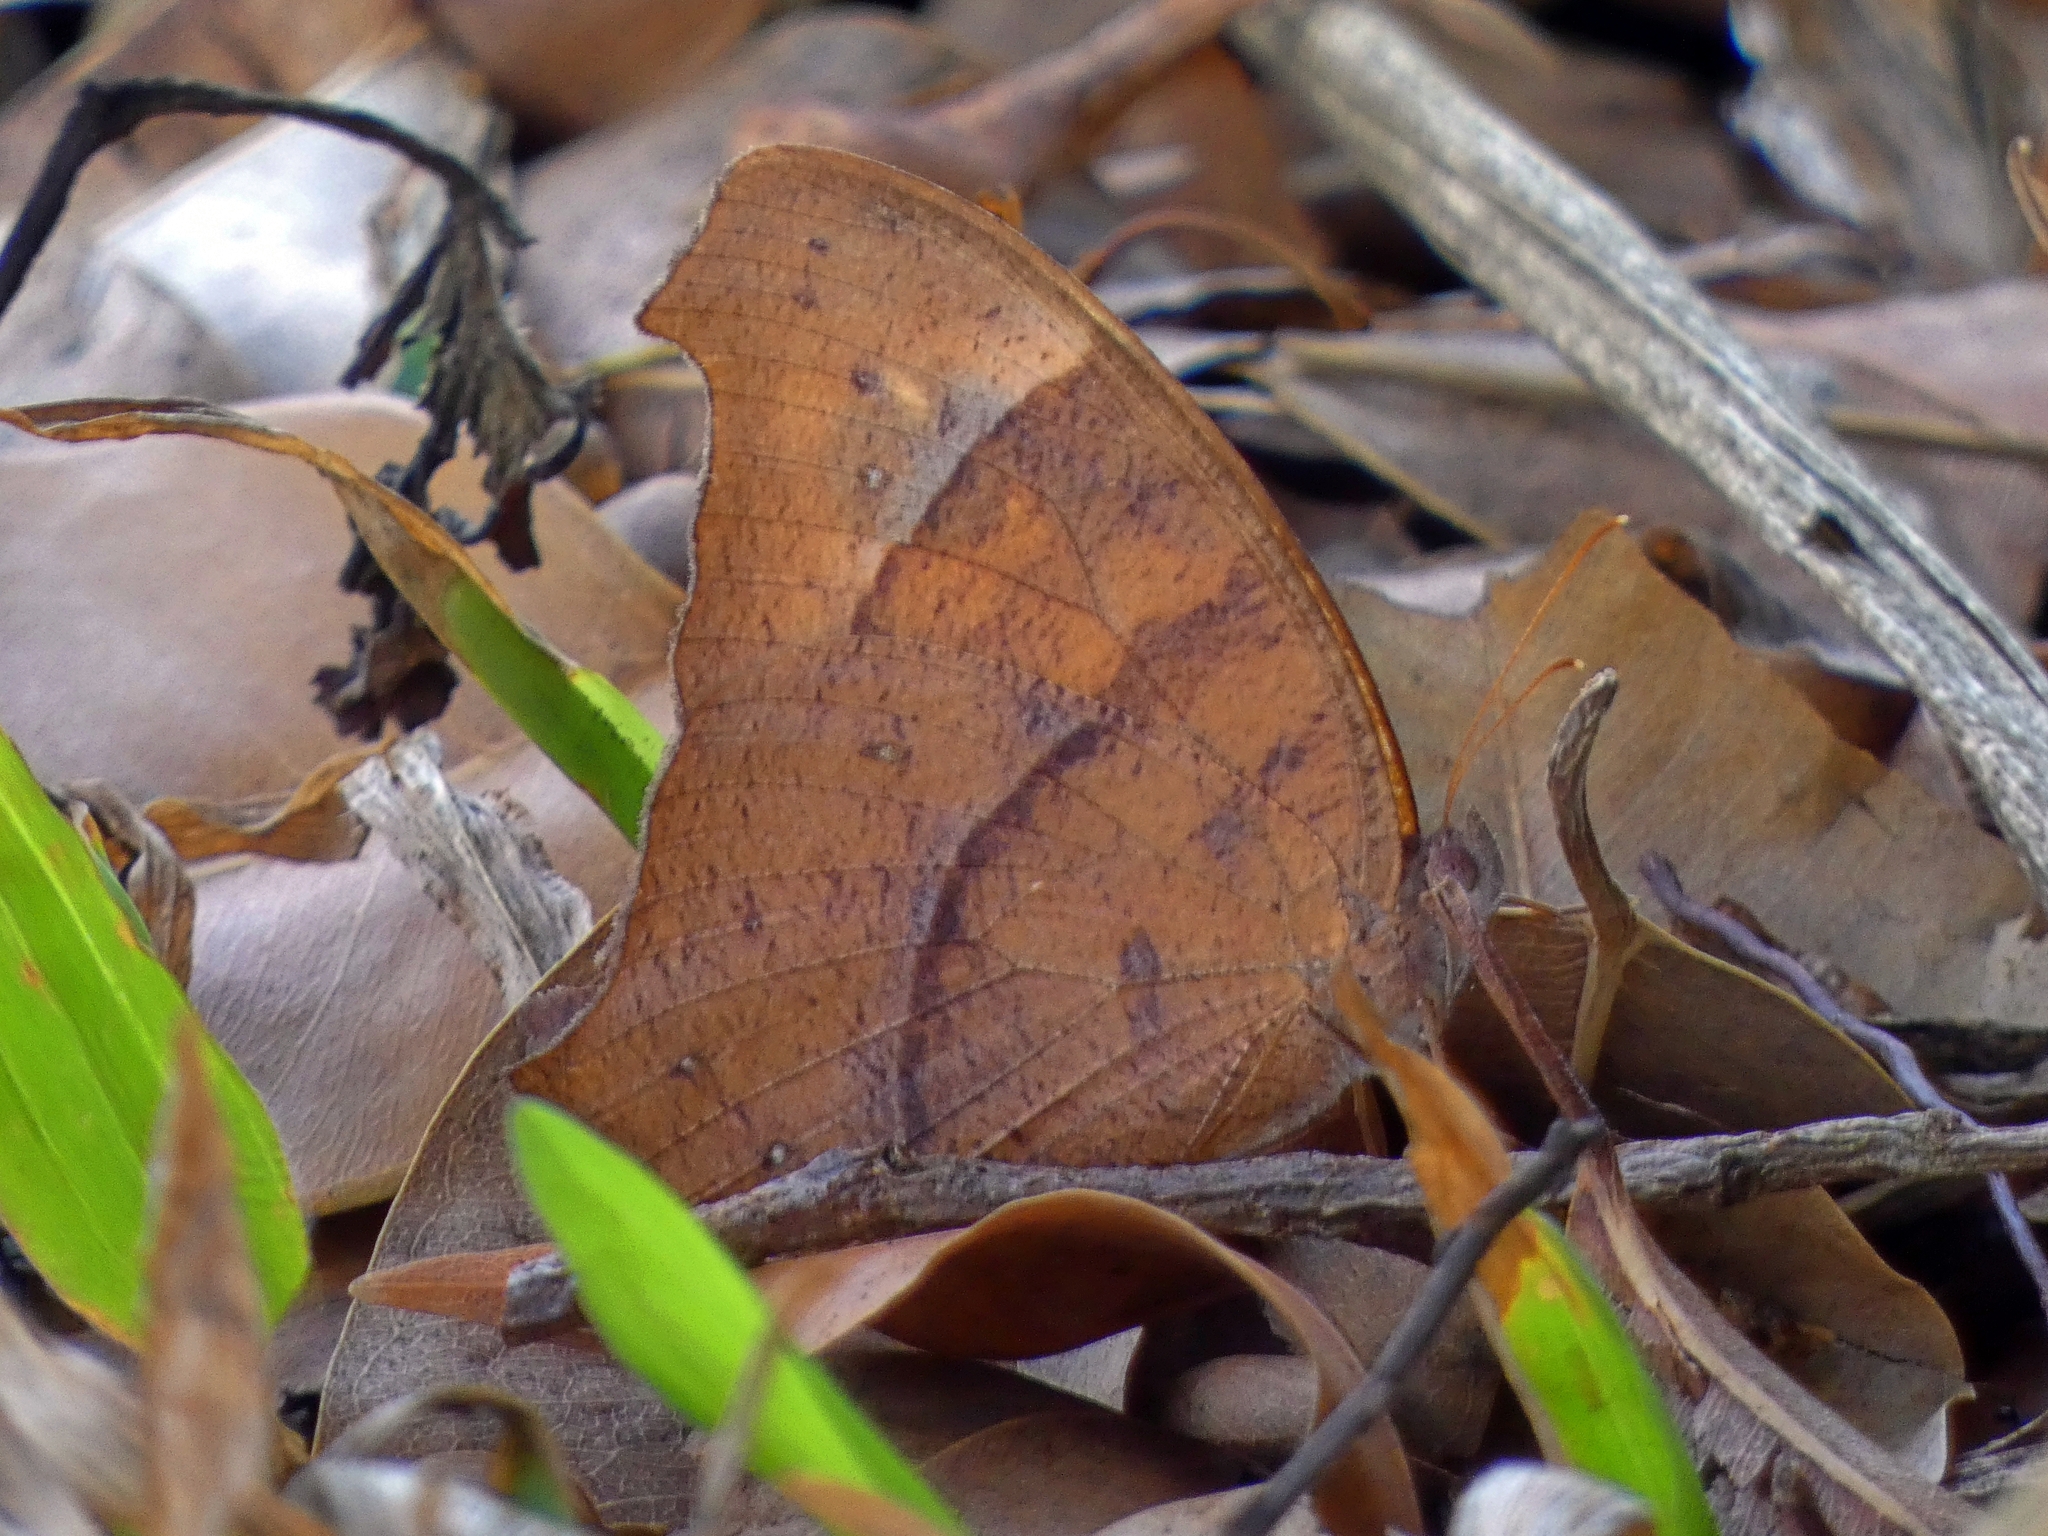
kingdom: Animalia
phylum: Arthropoda
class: Insecta
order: Lepidoptera
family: Nymphalidae
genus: Melanitis
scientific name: Melanitis leda
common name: Twilight brown
